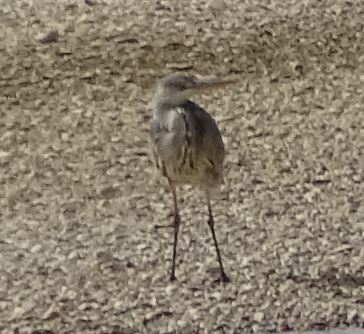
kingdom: Animalia
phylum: Chordata
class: Aves
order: Pelecaniformes
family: Ardeidae
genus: Ardea
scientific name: Ardea cinerea
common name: Grey heron
